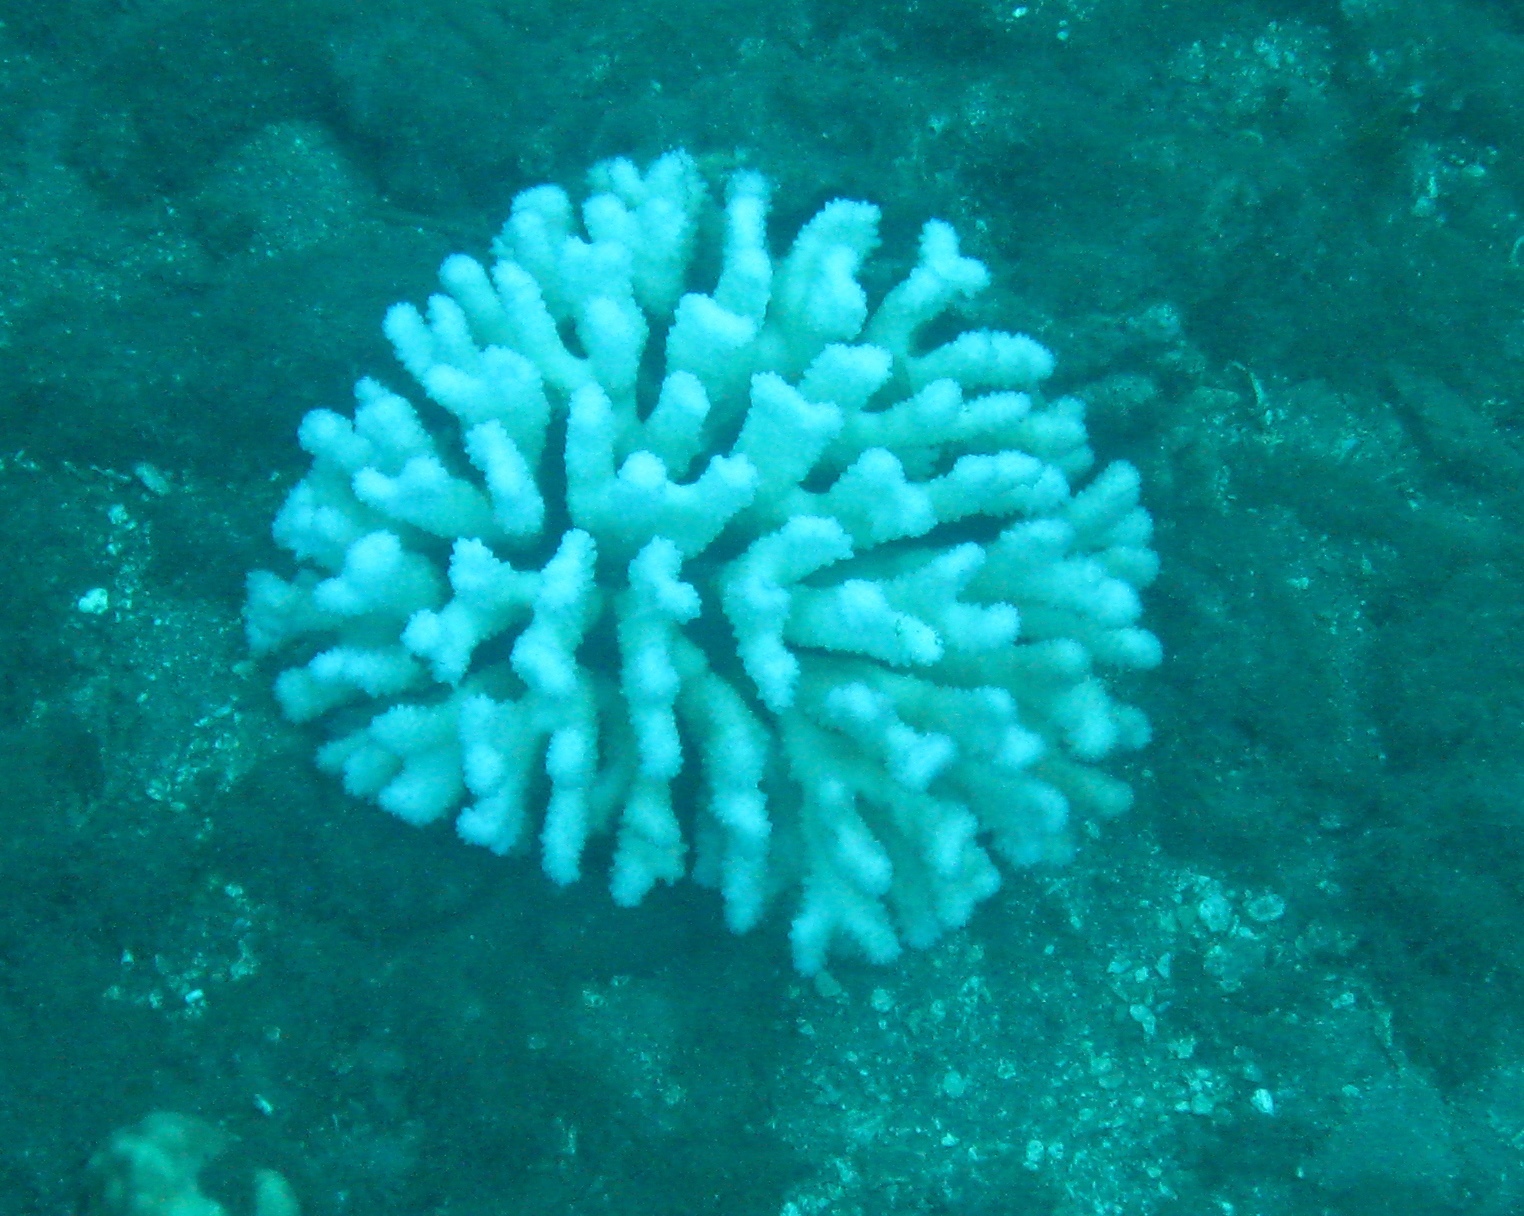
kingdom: Animalia
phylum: Cnidaria
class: Anthozoa
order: Scleractinia
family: Pocilloporidae
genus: Pocillopora
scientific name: Pocillopora verrucosa
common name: Cauliflower coral
